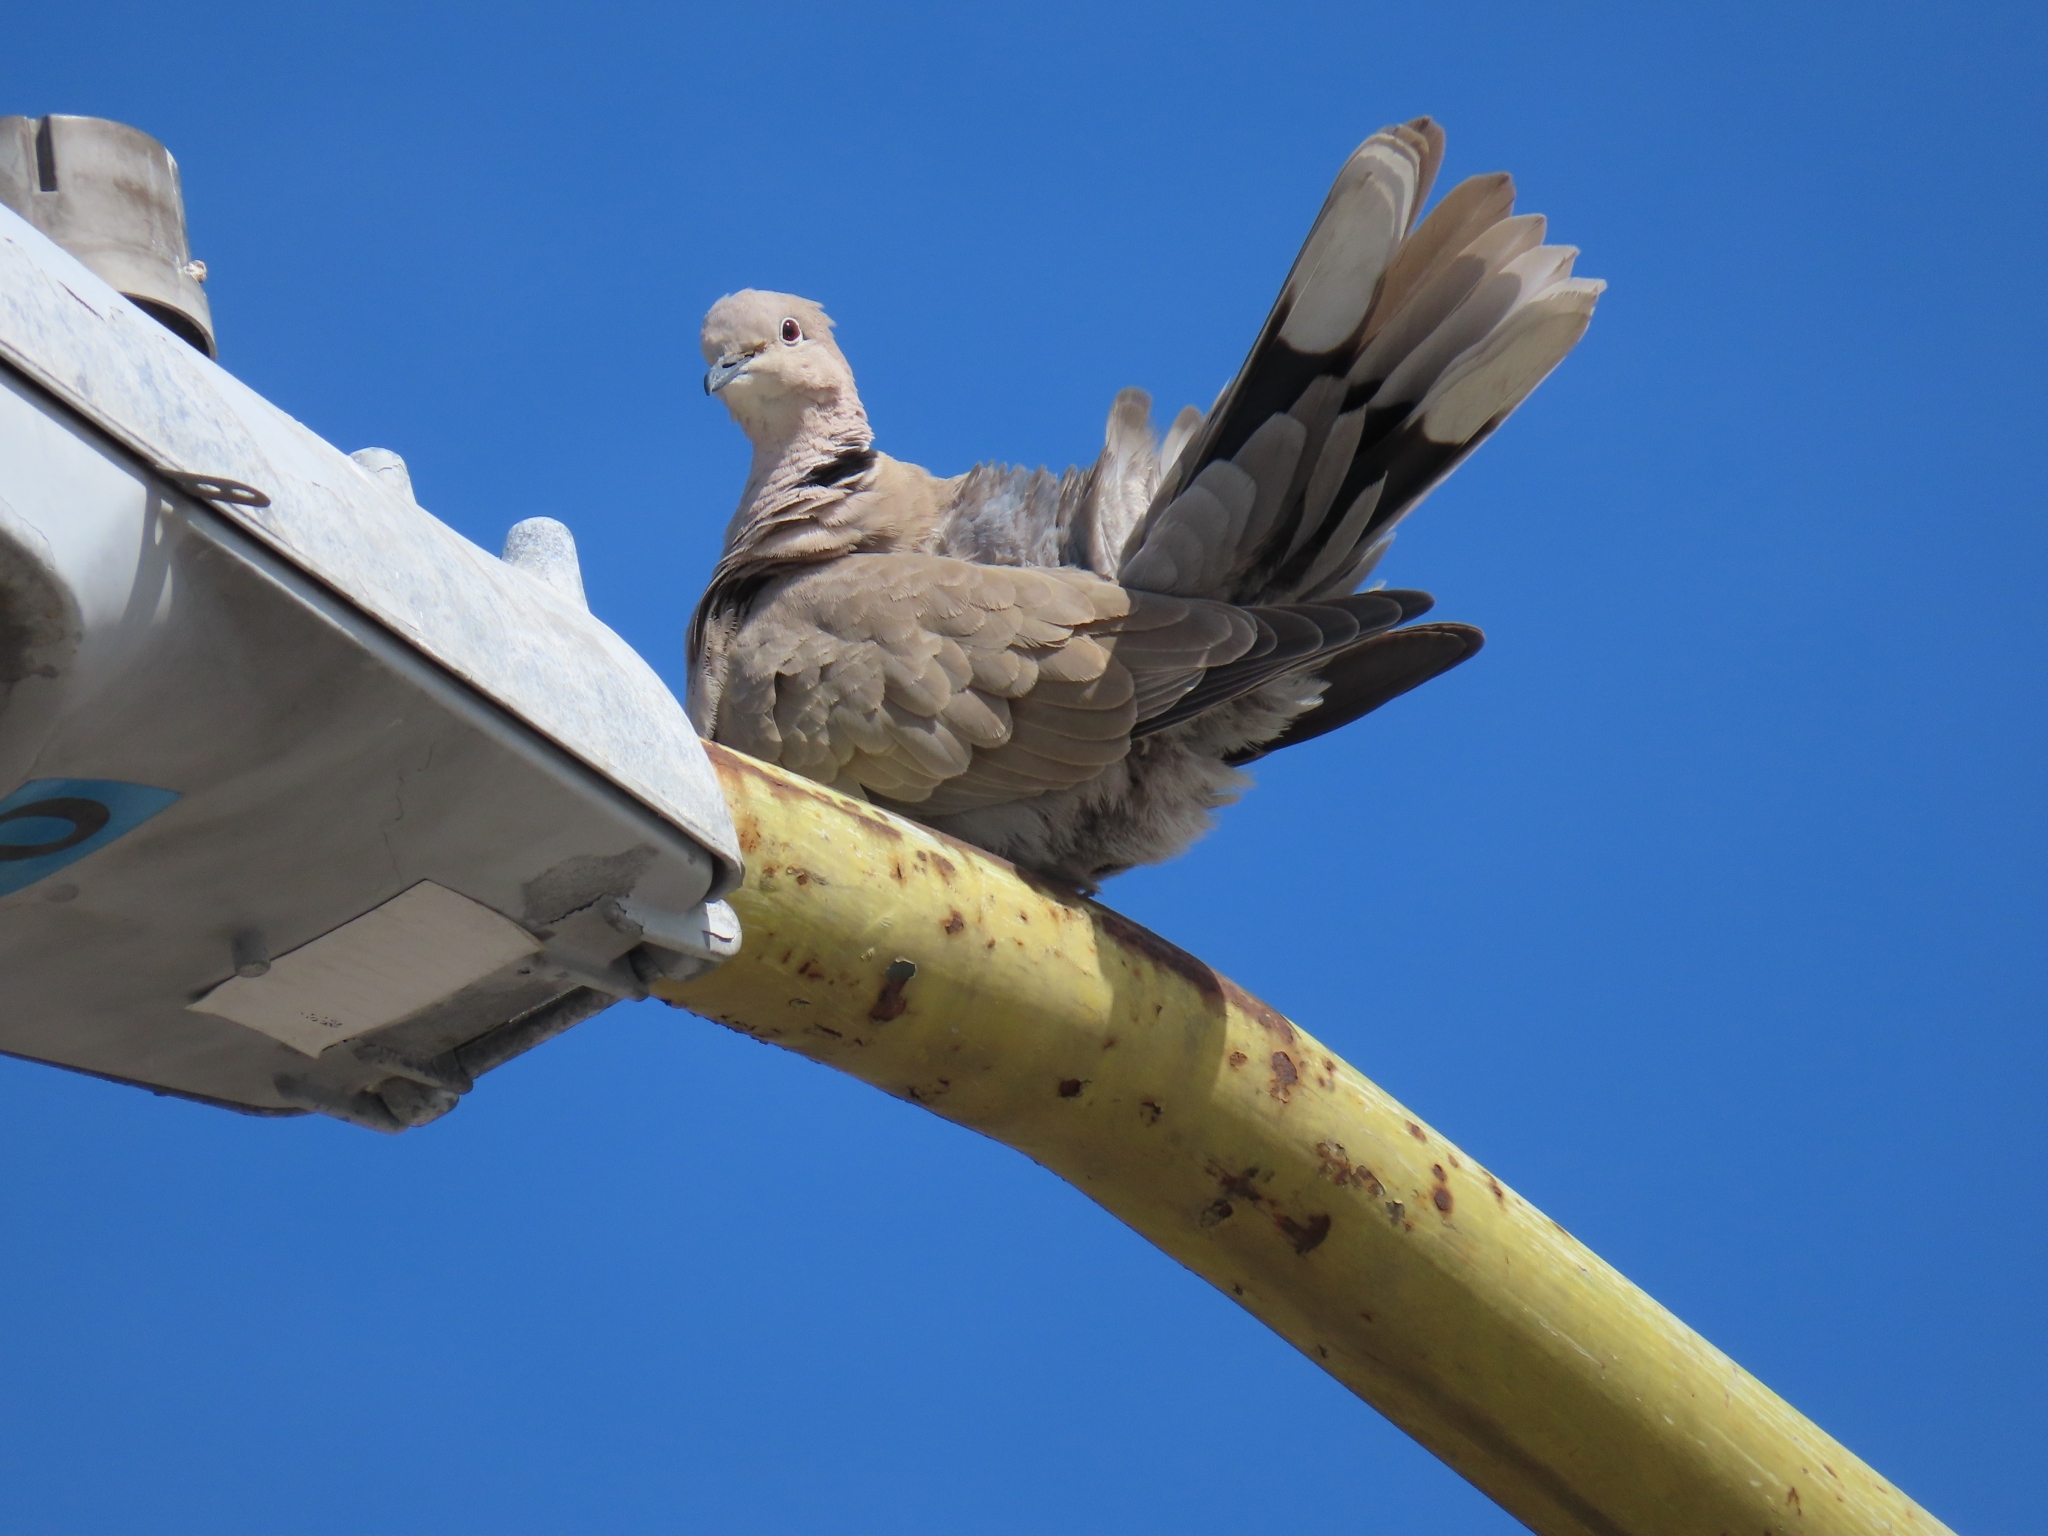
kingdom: Animalia
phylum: Chordata
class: Aves
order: Columbiformes
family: Columbidae
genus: Streptopelia
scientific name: Streptopelia decaocto
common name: Eurasian collared dove
